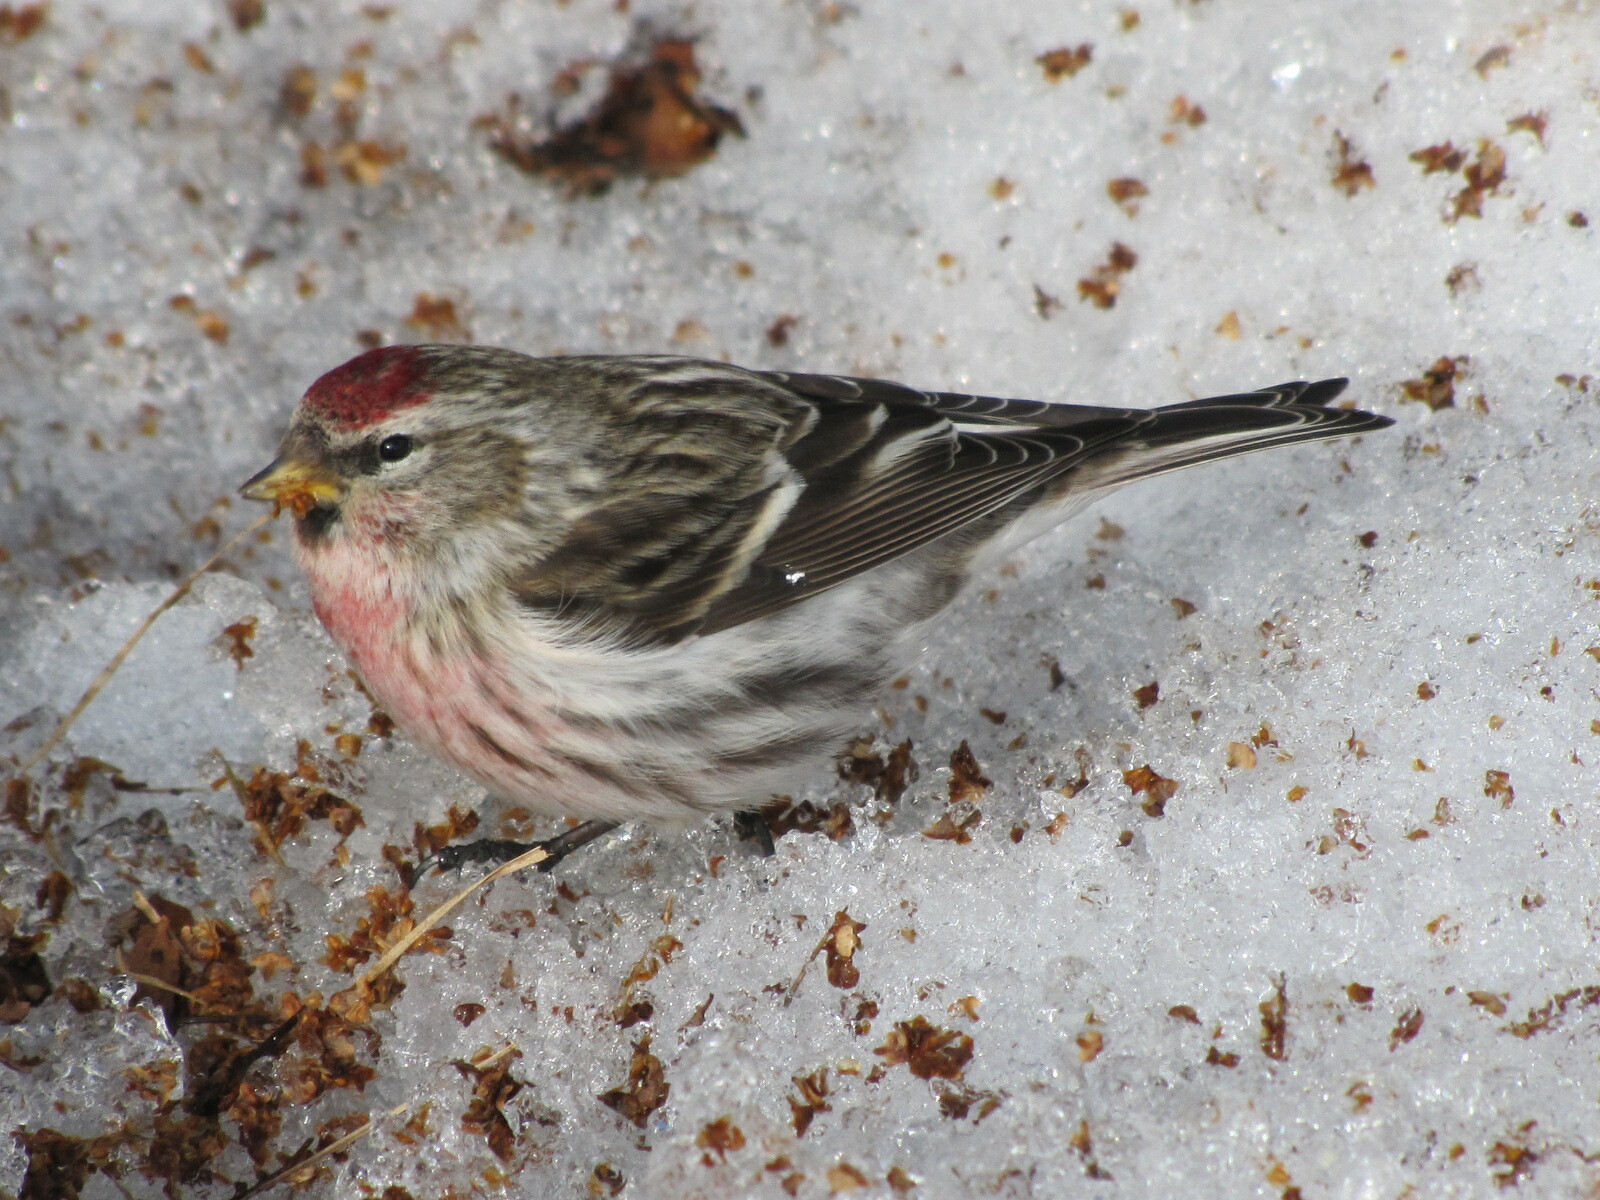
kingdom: Animalia
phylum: Chordata
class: Aves
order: Passeriformes
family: Fringillidae
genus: Acanthis
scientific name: Acanthis flammea
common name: Common redpoll
